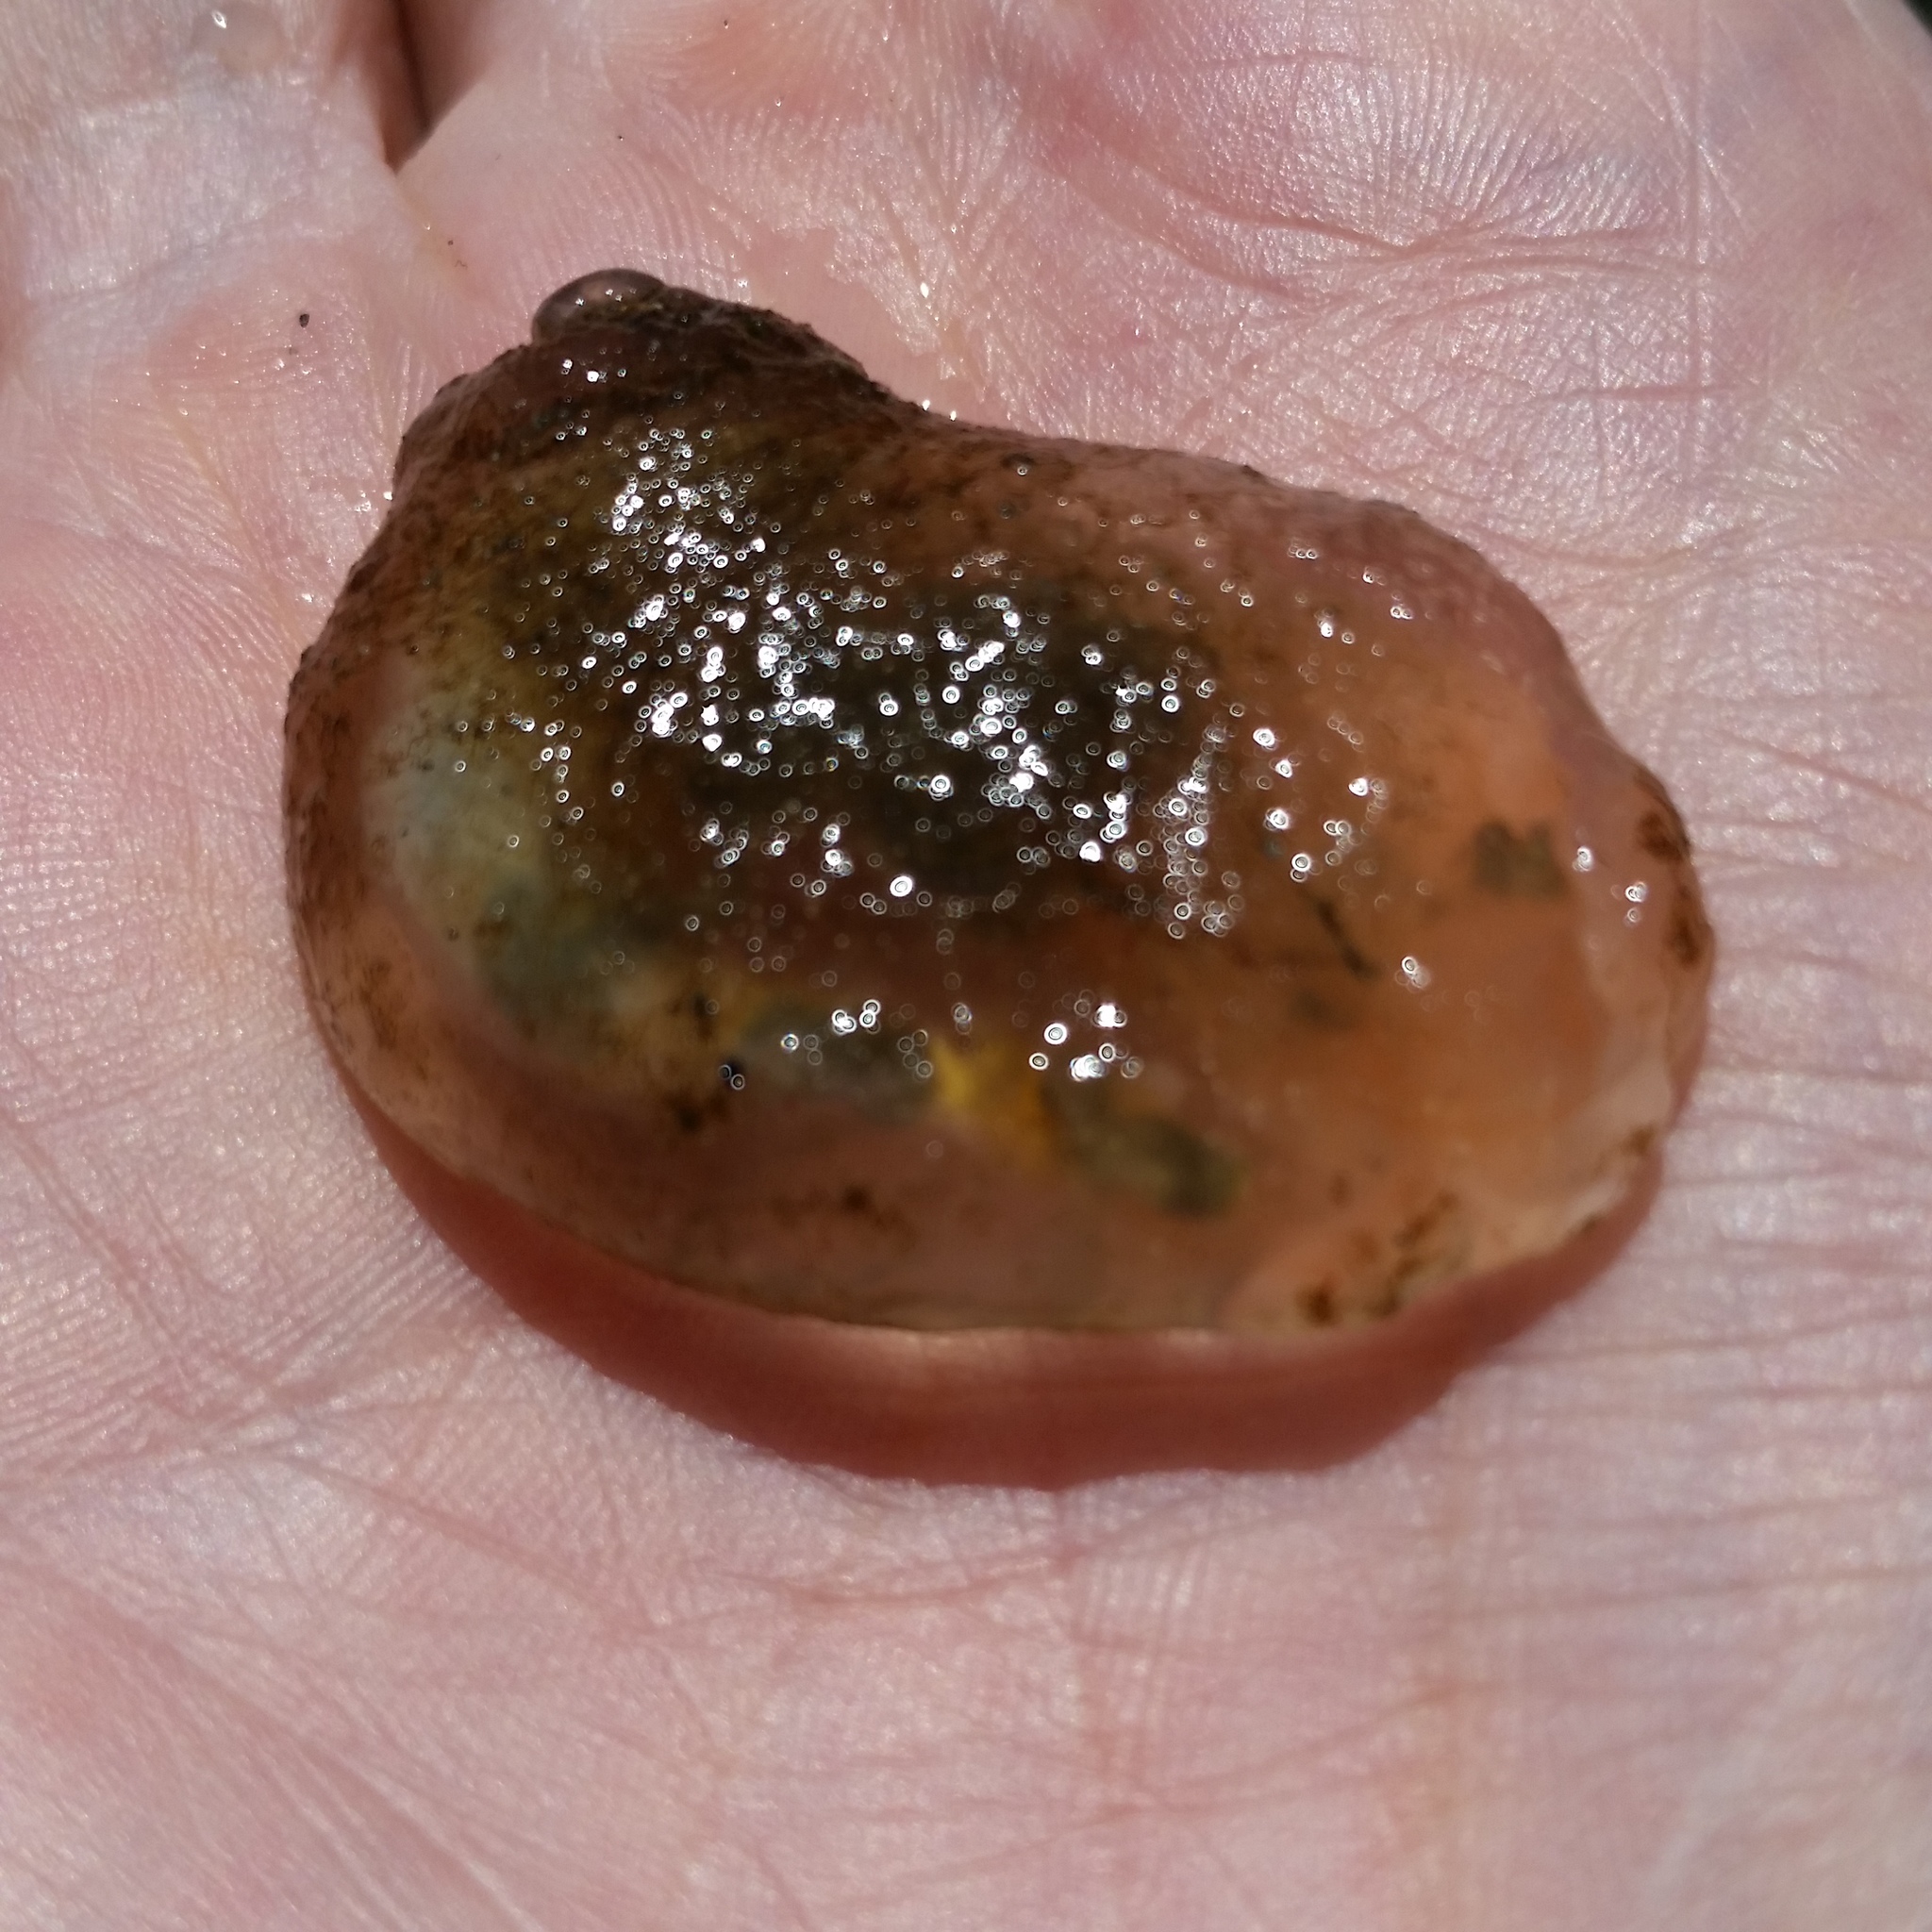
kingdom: Animalia
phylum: Mollusca
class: Gastropoda
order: Cephalaspidea
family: Aglajidae
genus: Aglaja
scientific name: Aglaja ocelligera
